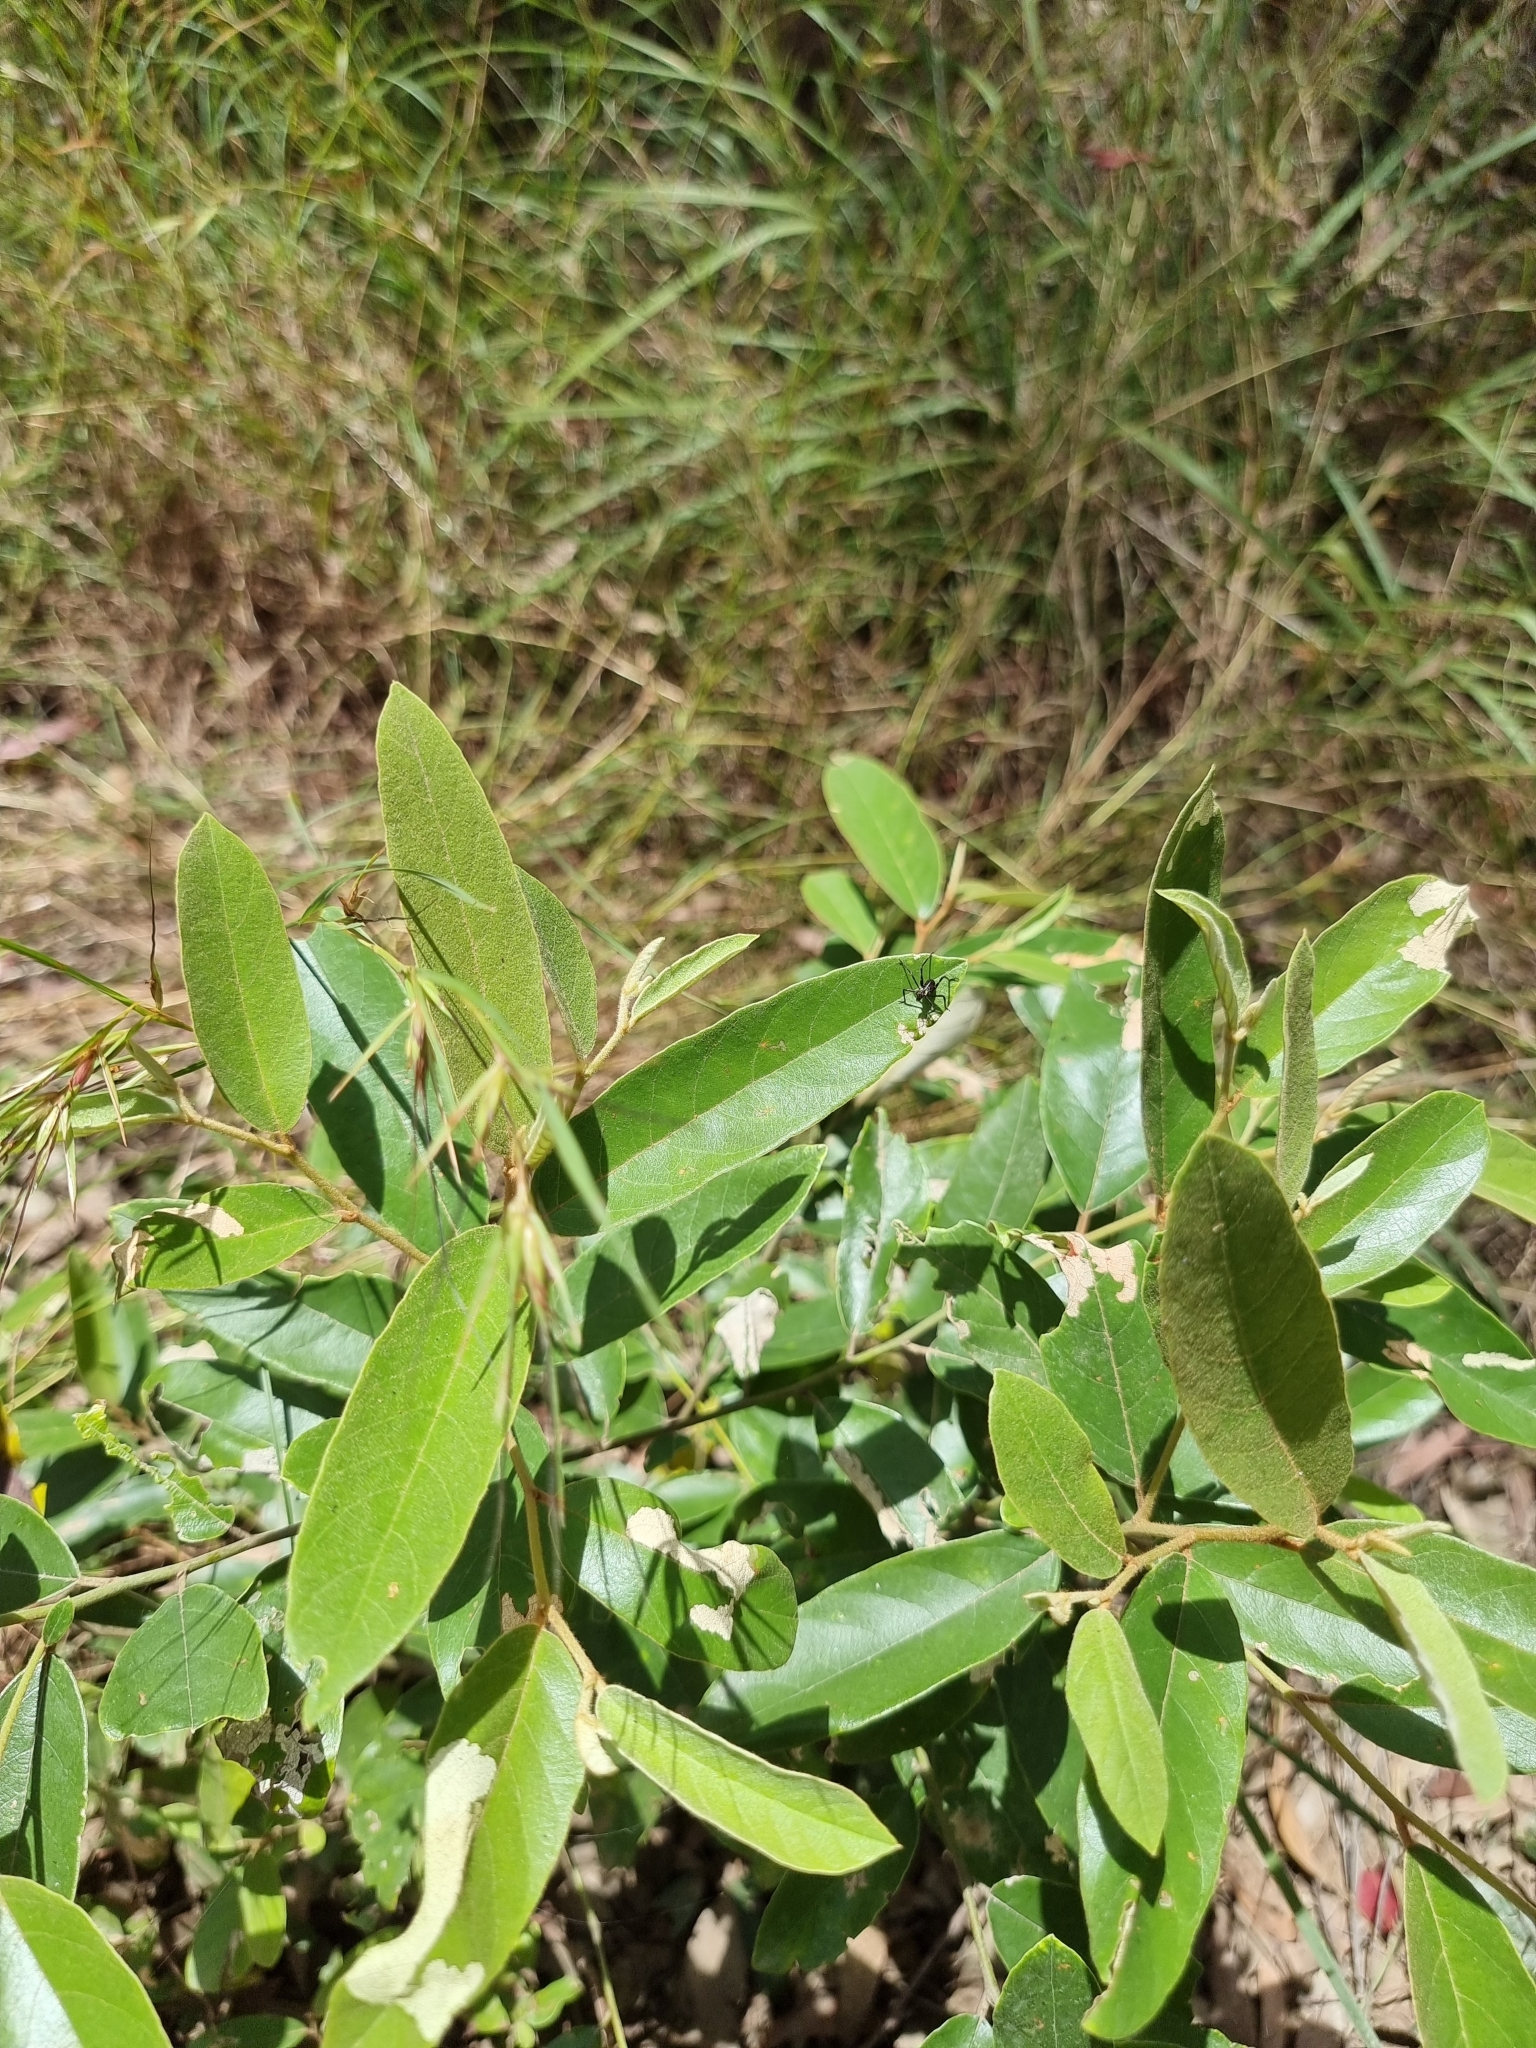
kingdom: Animalia
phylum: Arthropoda
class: Insecta
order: Orthoptera
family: Tettigoniidae
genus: Ephippitytha
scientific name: Ephippitytha trigintiduoguttata
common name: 32-spotted katydid
